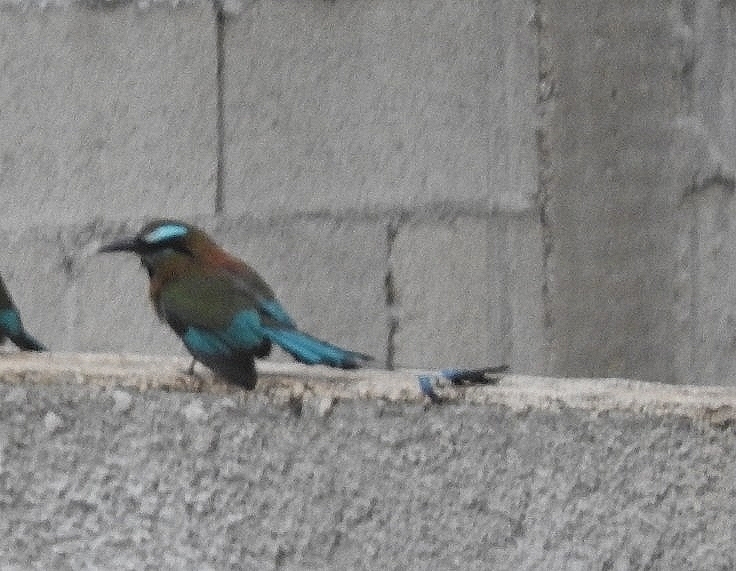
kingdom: Animalia
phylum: Chordata
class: Aves
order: Coraciiformes
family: Momotidae
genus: Eumomota
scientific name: Eumomota superciliosa
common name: Turquoise-browed motmot
